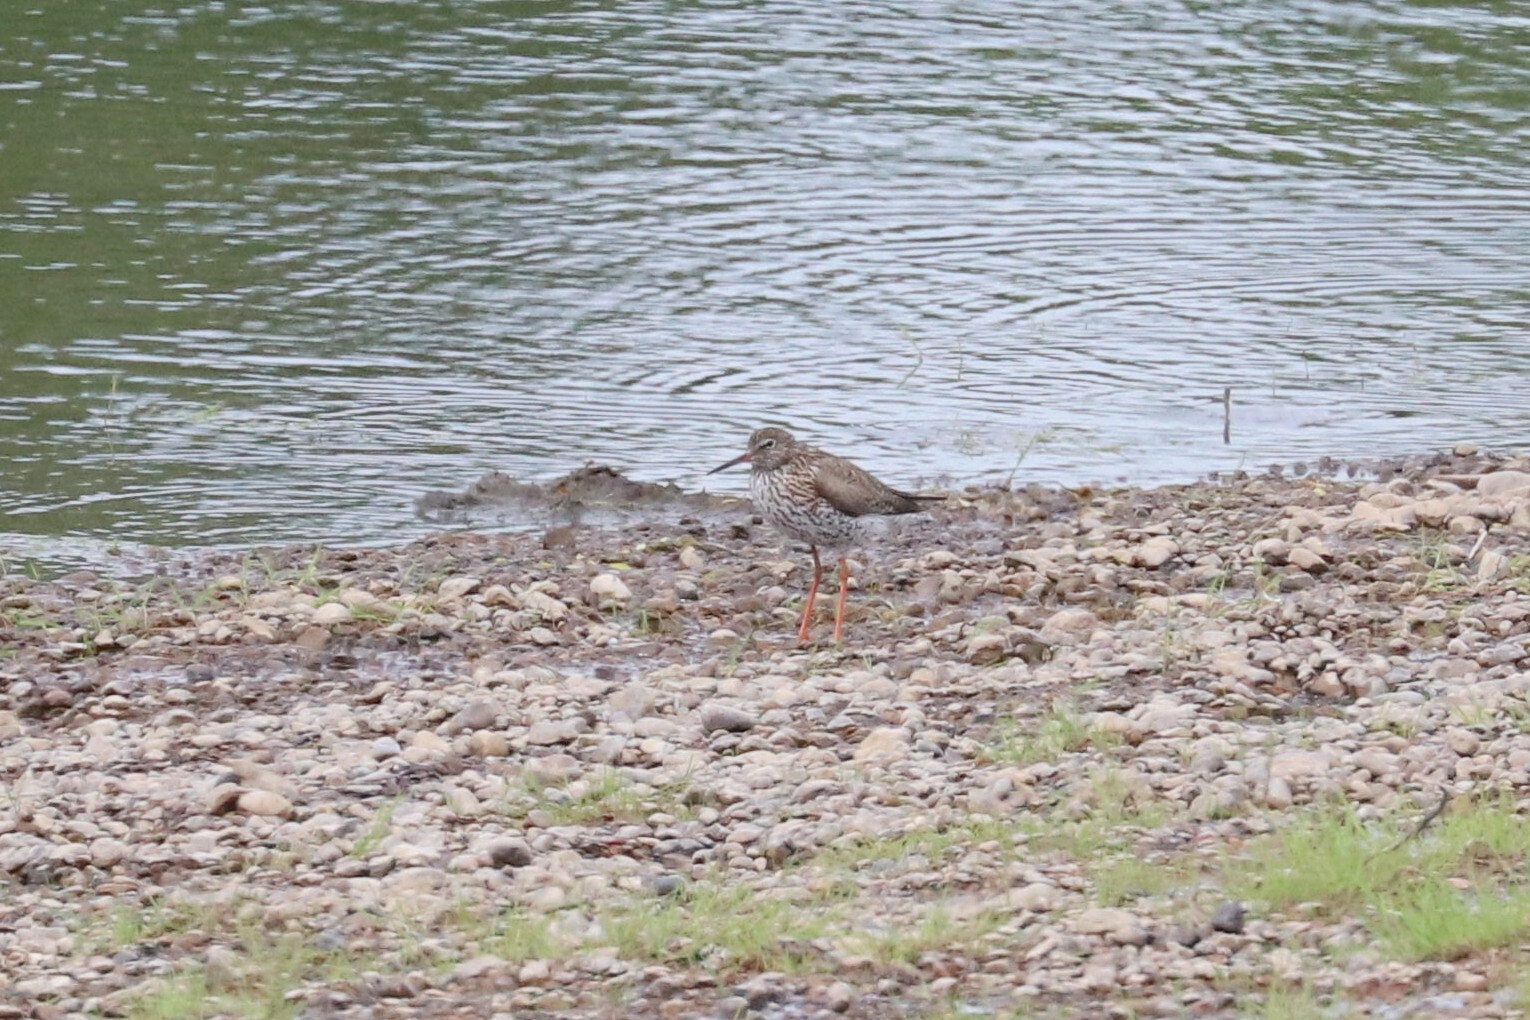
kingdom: Animalia
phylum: Chordata
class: Aves
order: Charadriiformes
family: Scolopacidae
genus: Tringa
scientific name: Tringa totanus
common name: Common redshank
